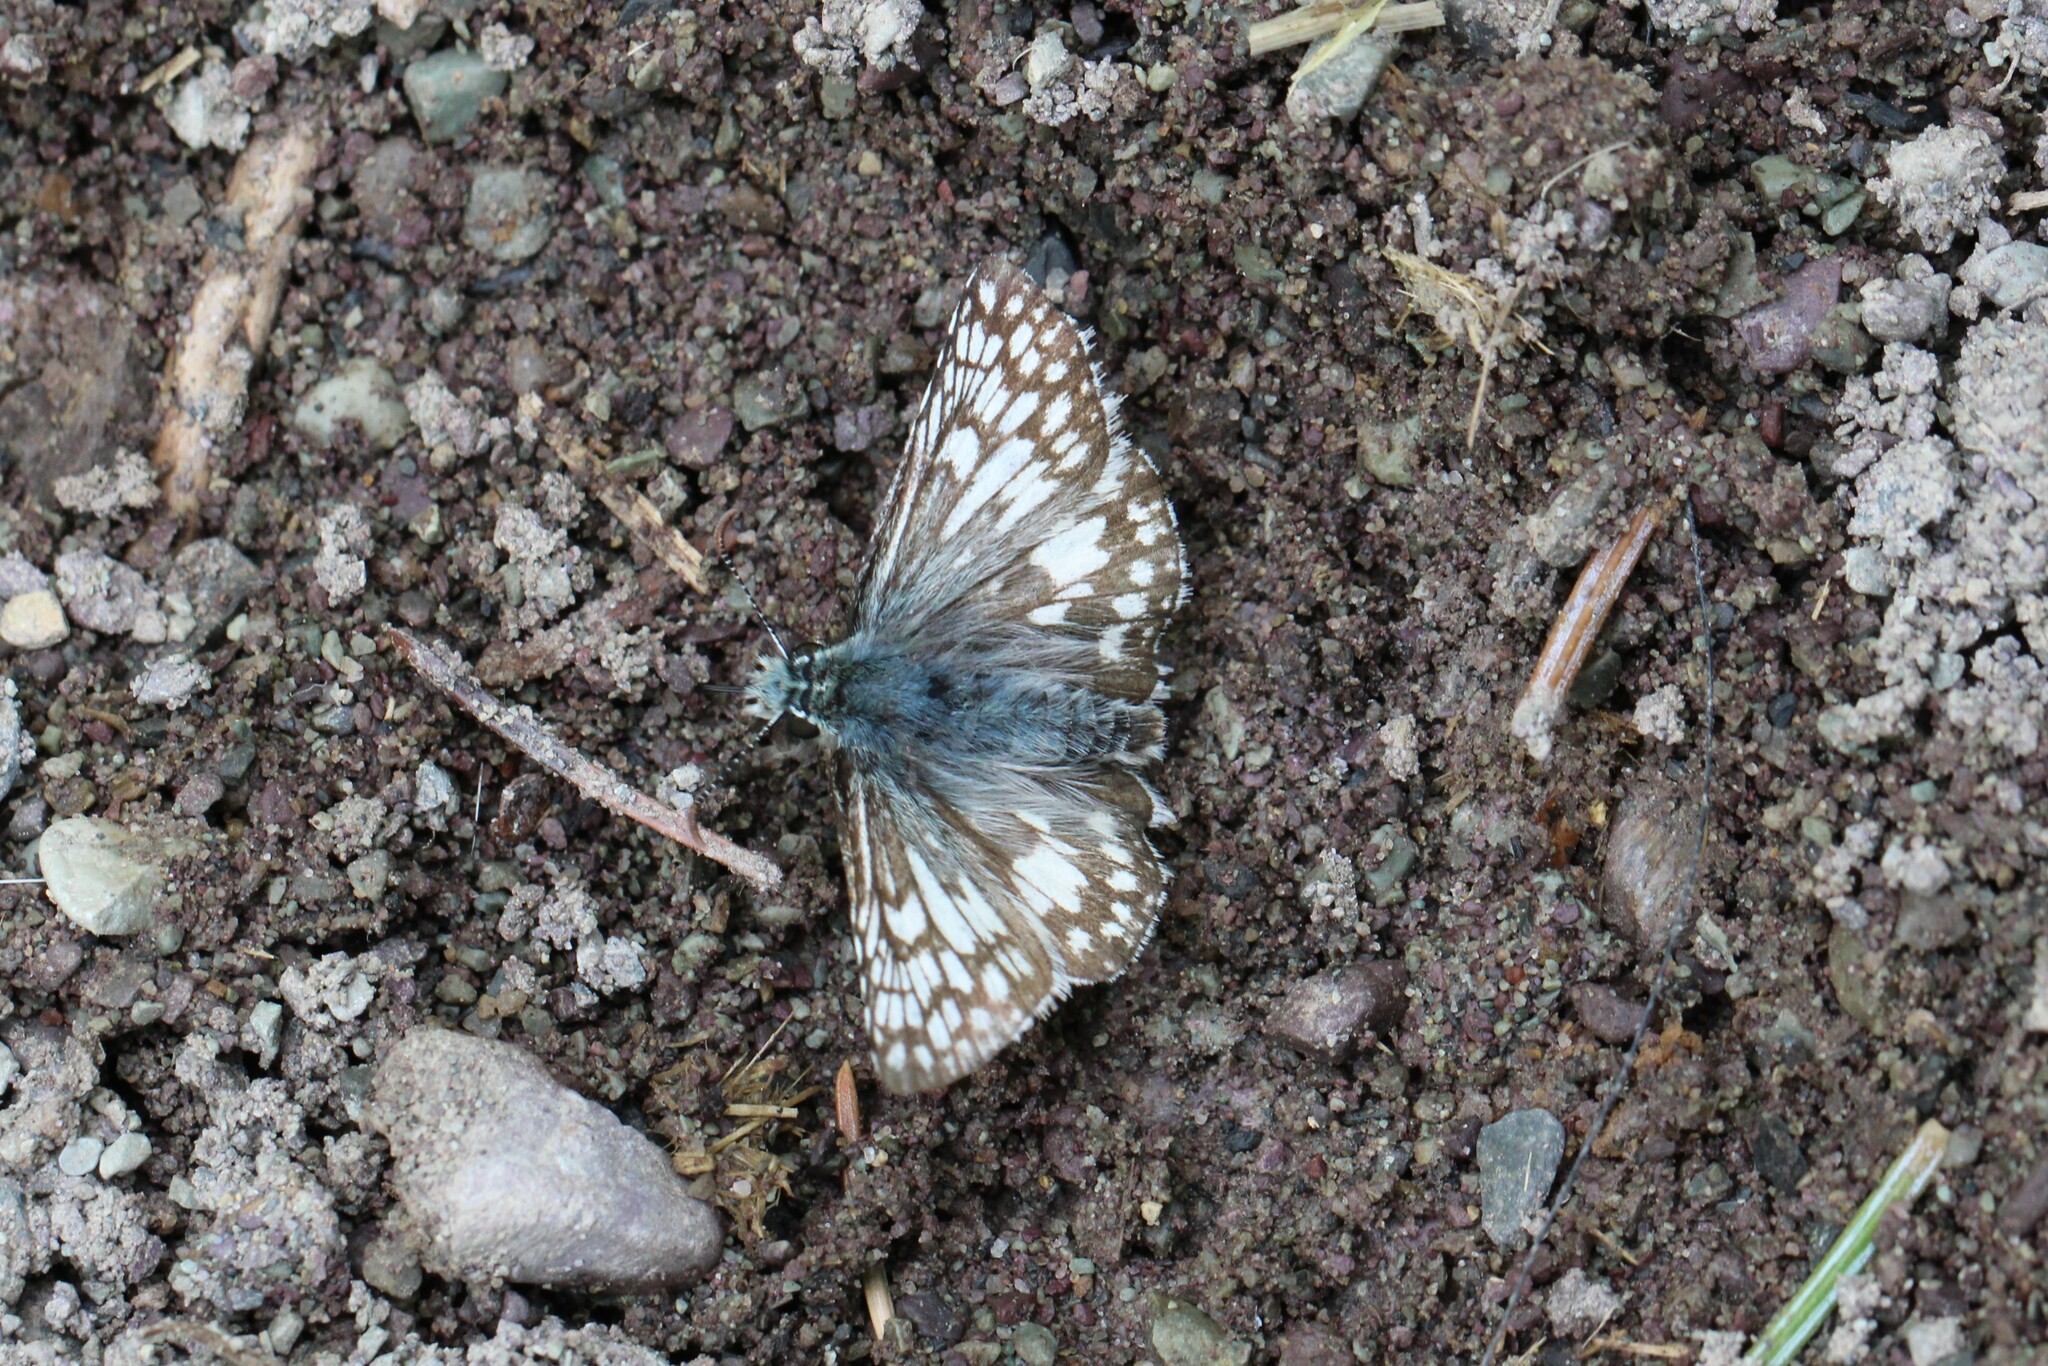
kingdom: Animalia
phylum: Arthropoda
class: Insecta
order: Lepidoptera
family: Hesperiidae
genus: Burnsius
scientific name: Burnsius communis
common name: Common checkered-skipper
